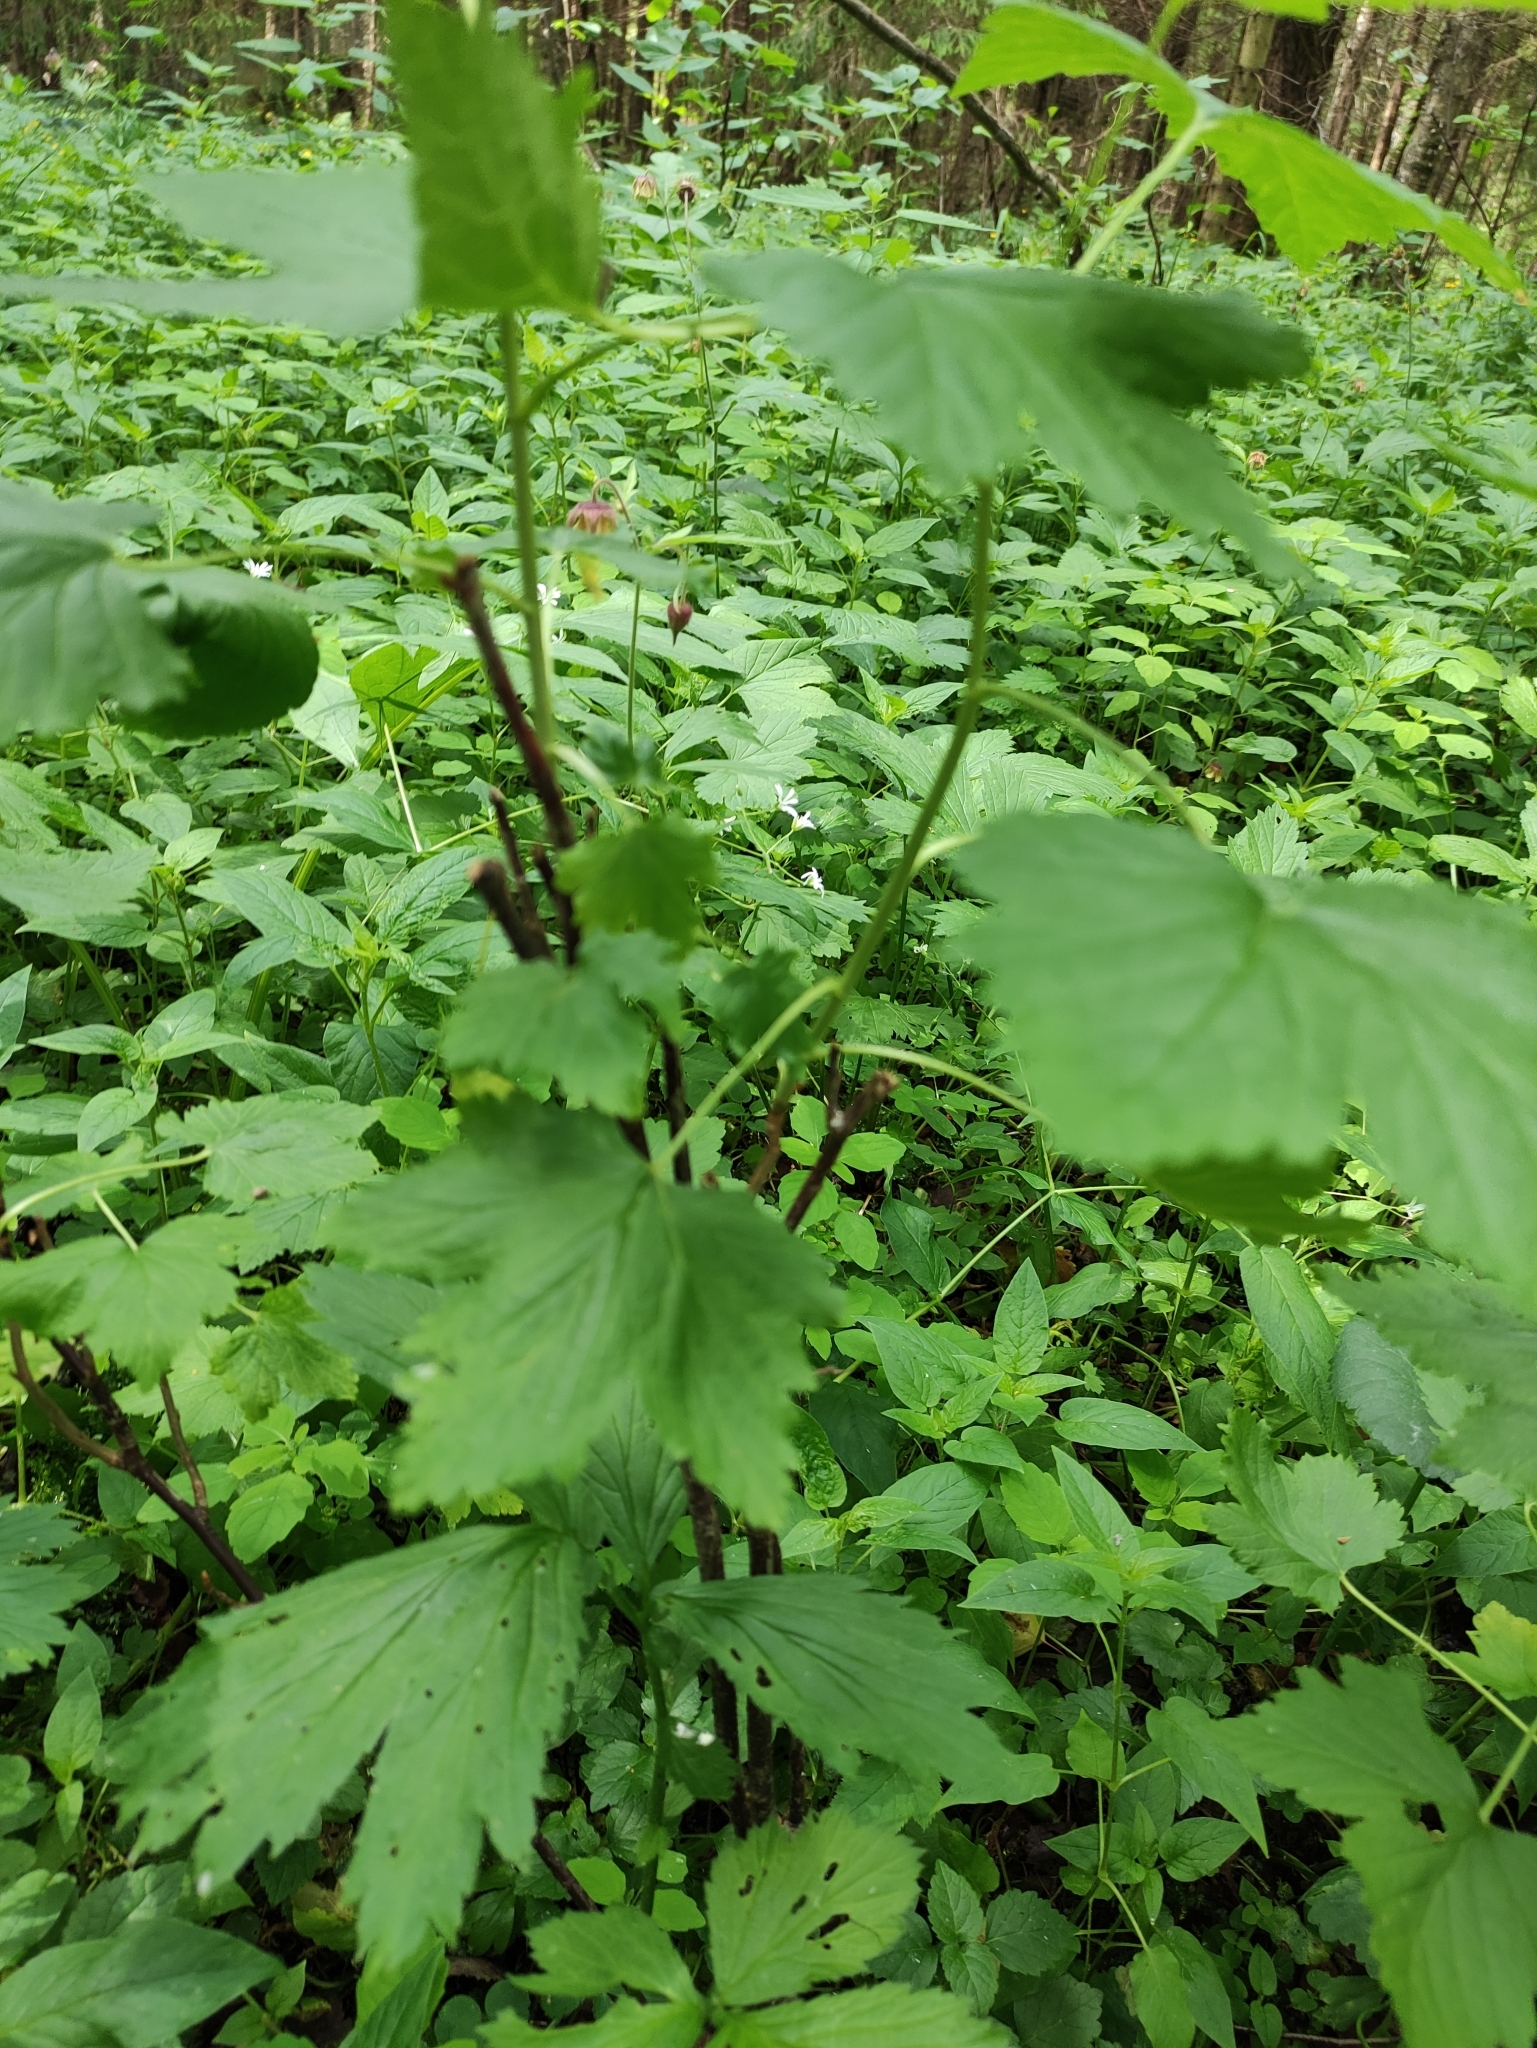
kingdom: Plantae
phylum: Tracheophyta
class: Magnoliopsida
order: Saxifragales
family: Grossulariaceae
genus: Ribes
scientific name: Ribes nigrum
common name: Black currant
